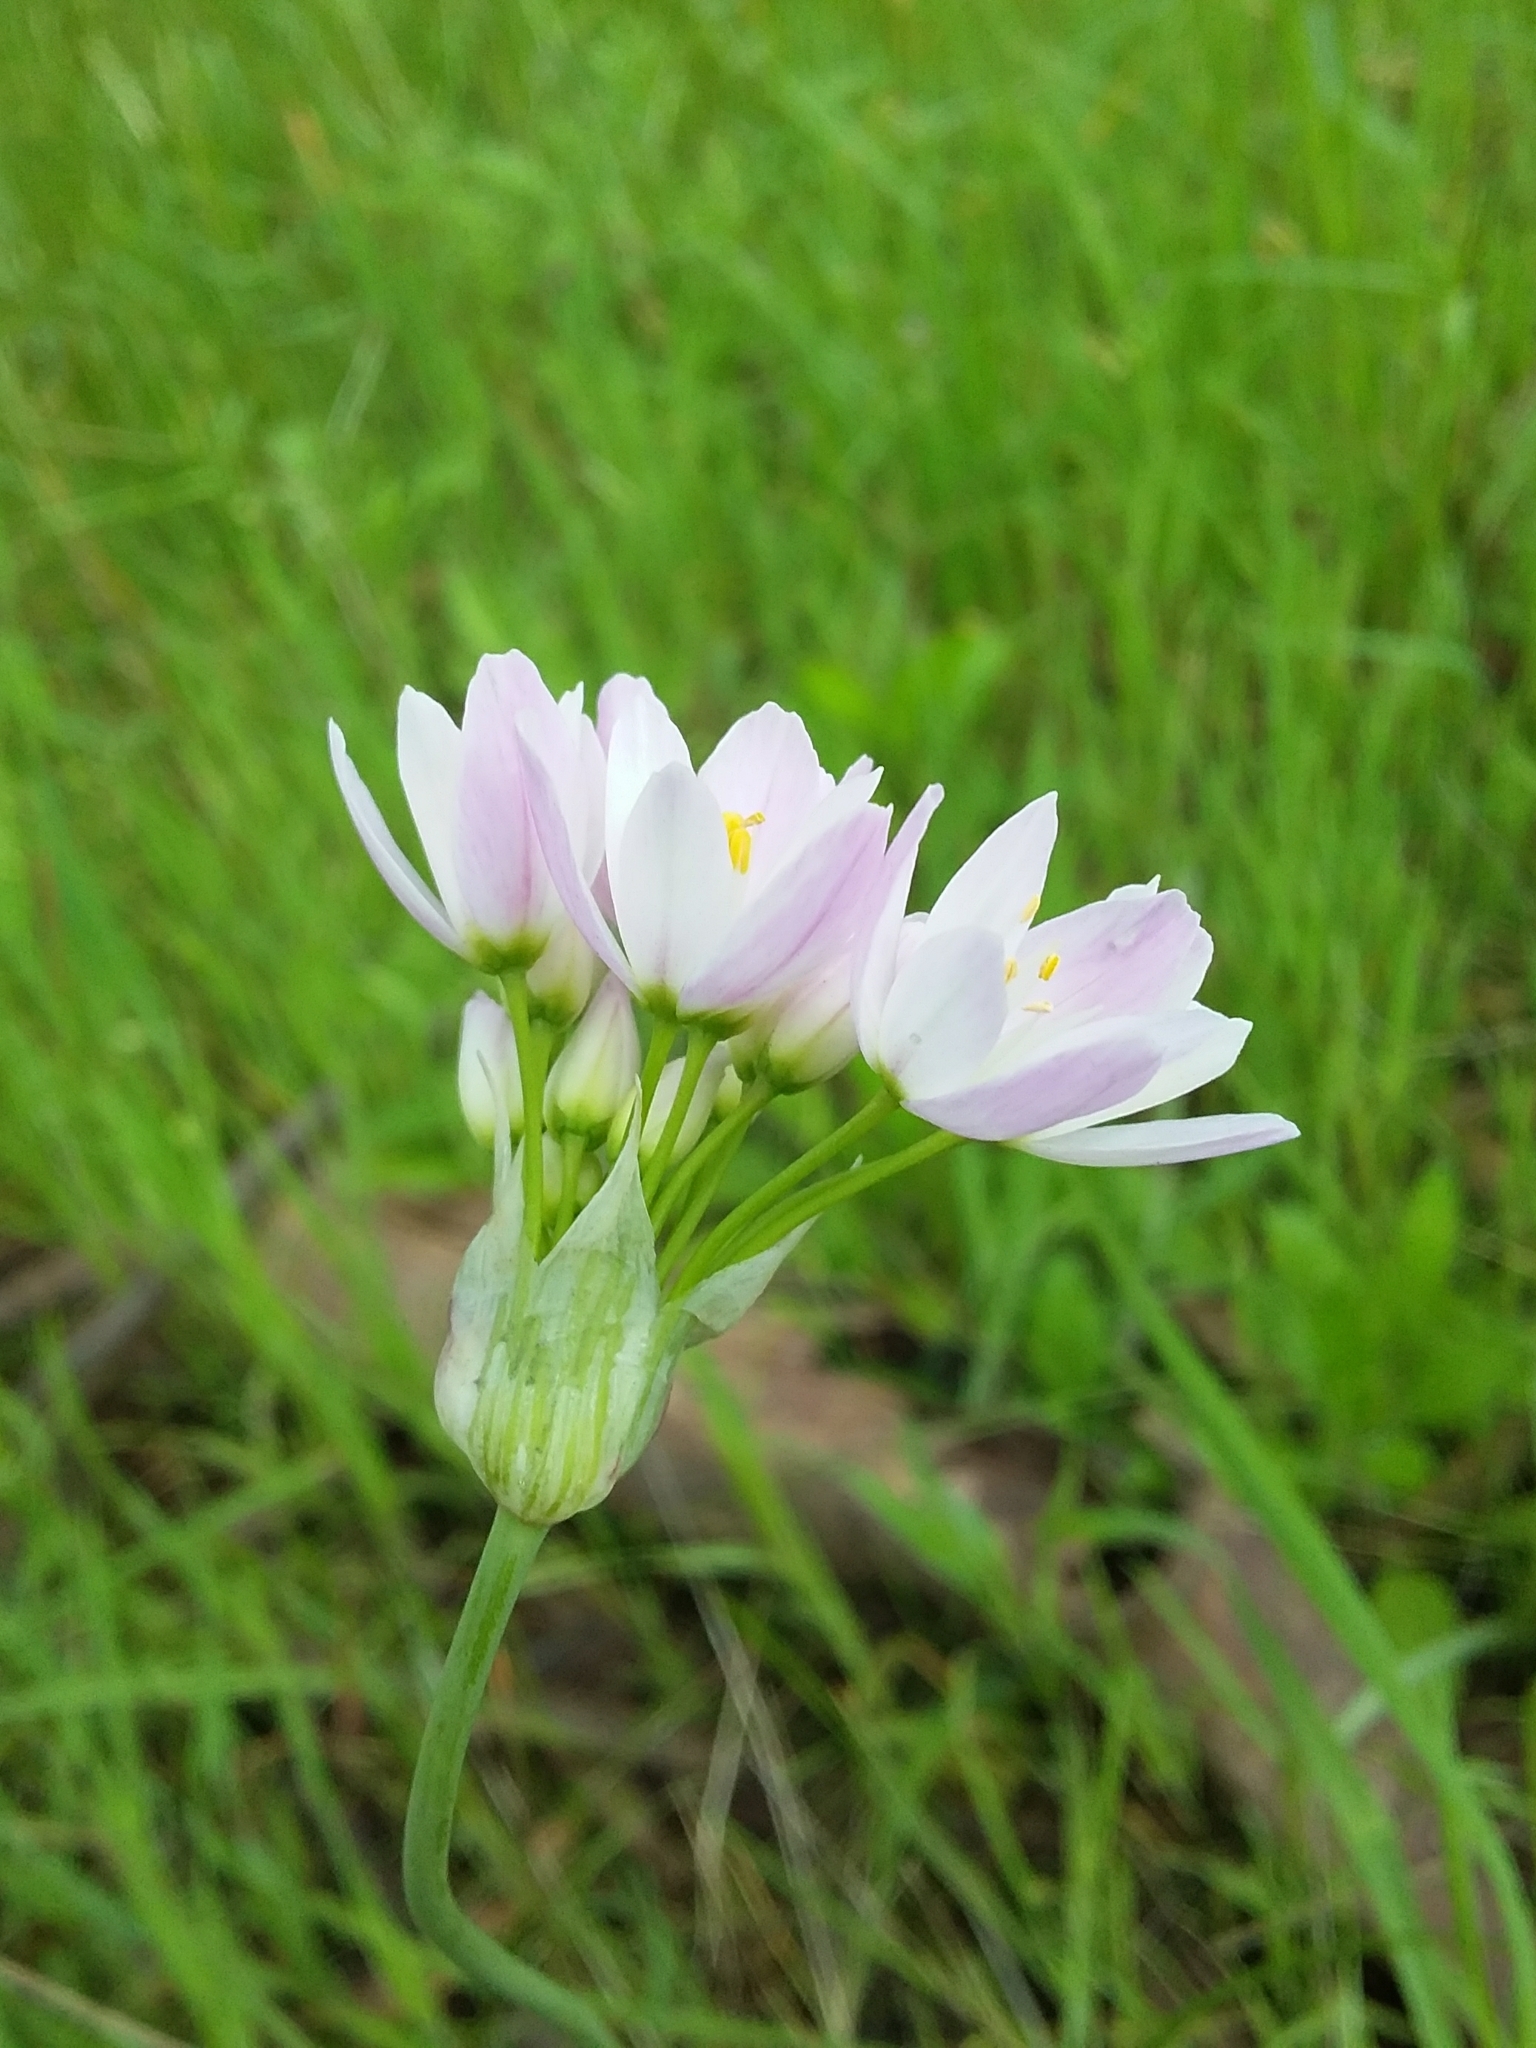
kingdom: Plantae
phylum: Tracheophyta
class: Liliopsida
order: Asparagales
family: Amaryllidaceae
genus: Allium
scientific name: Allium roseum
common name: Rosy garlic
